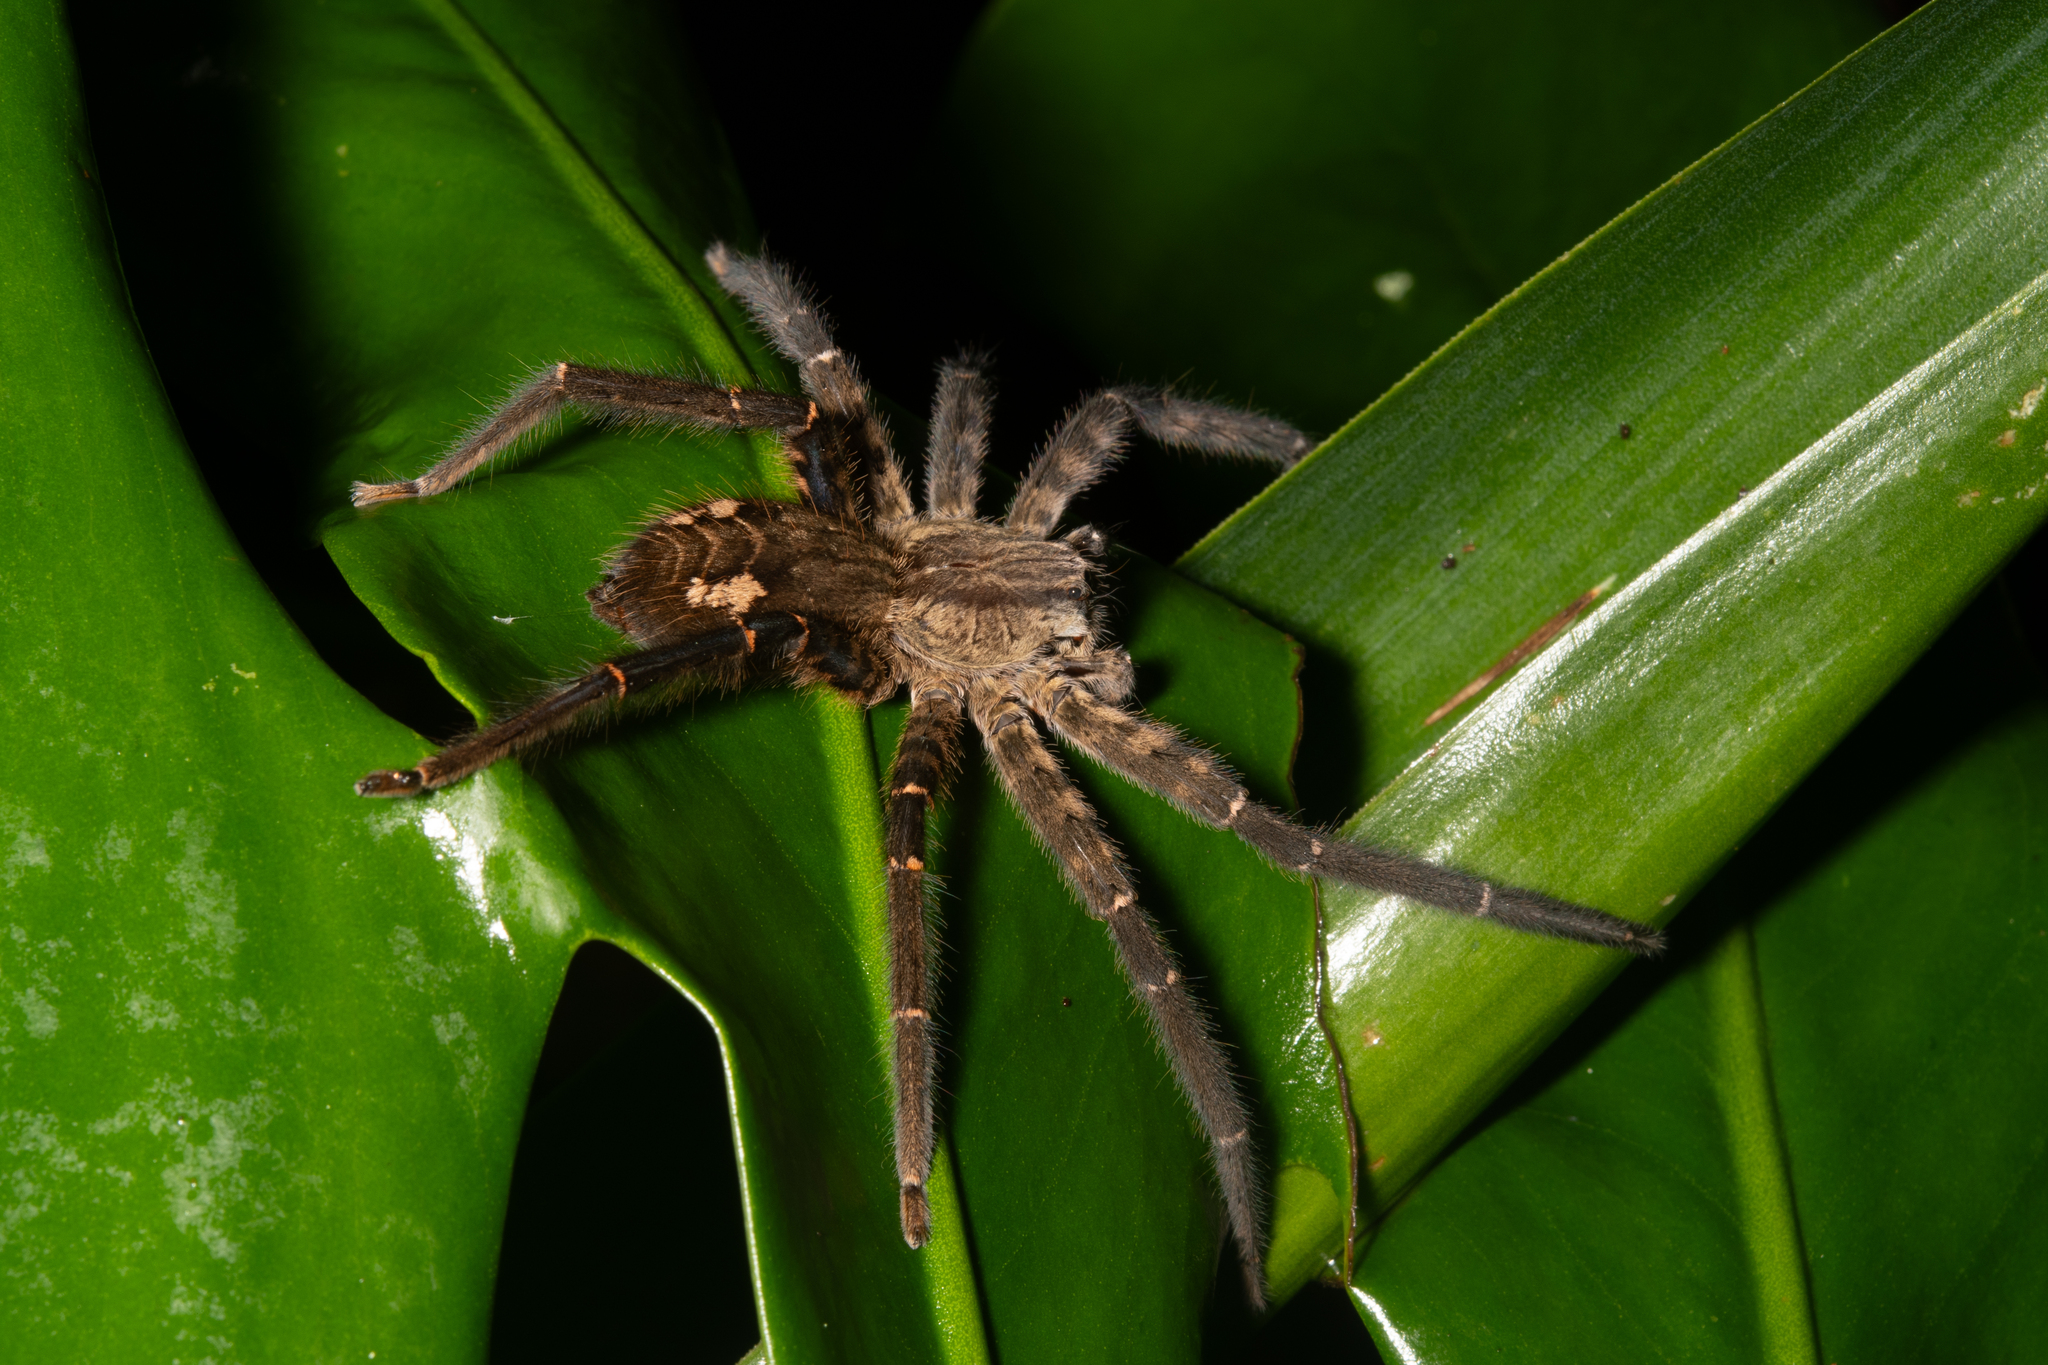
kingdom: Animalia
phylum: Arthropoda
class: Arachnida
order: Araneae
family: Trechaleidae
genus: Cupiennius
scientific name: Cupiennius salei
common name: Wandering spiders
